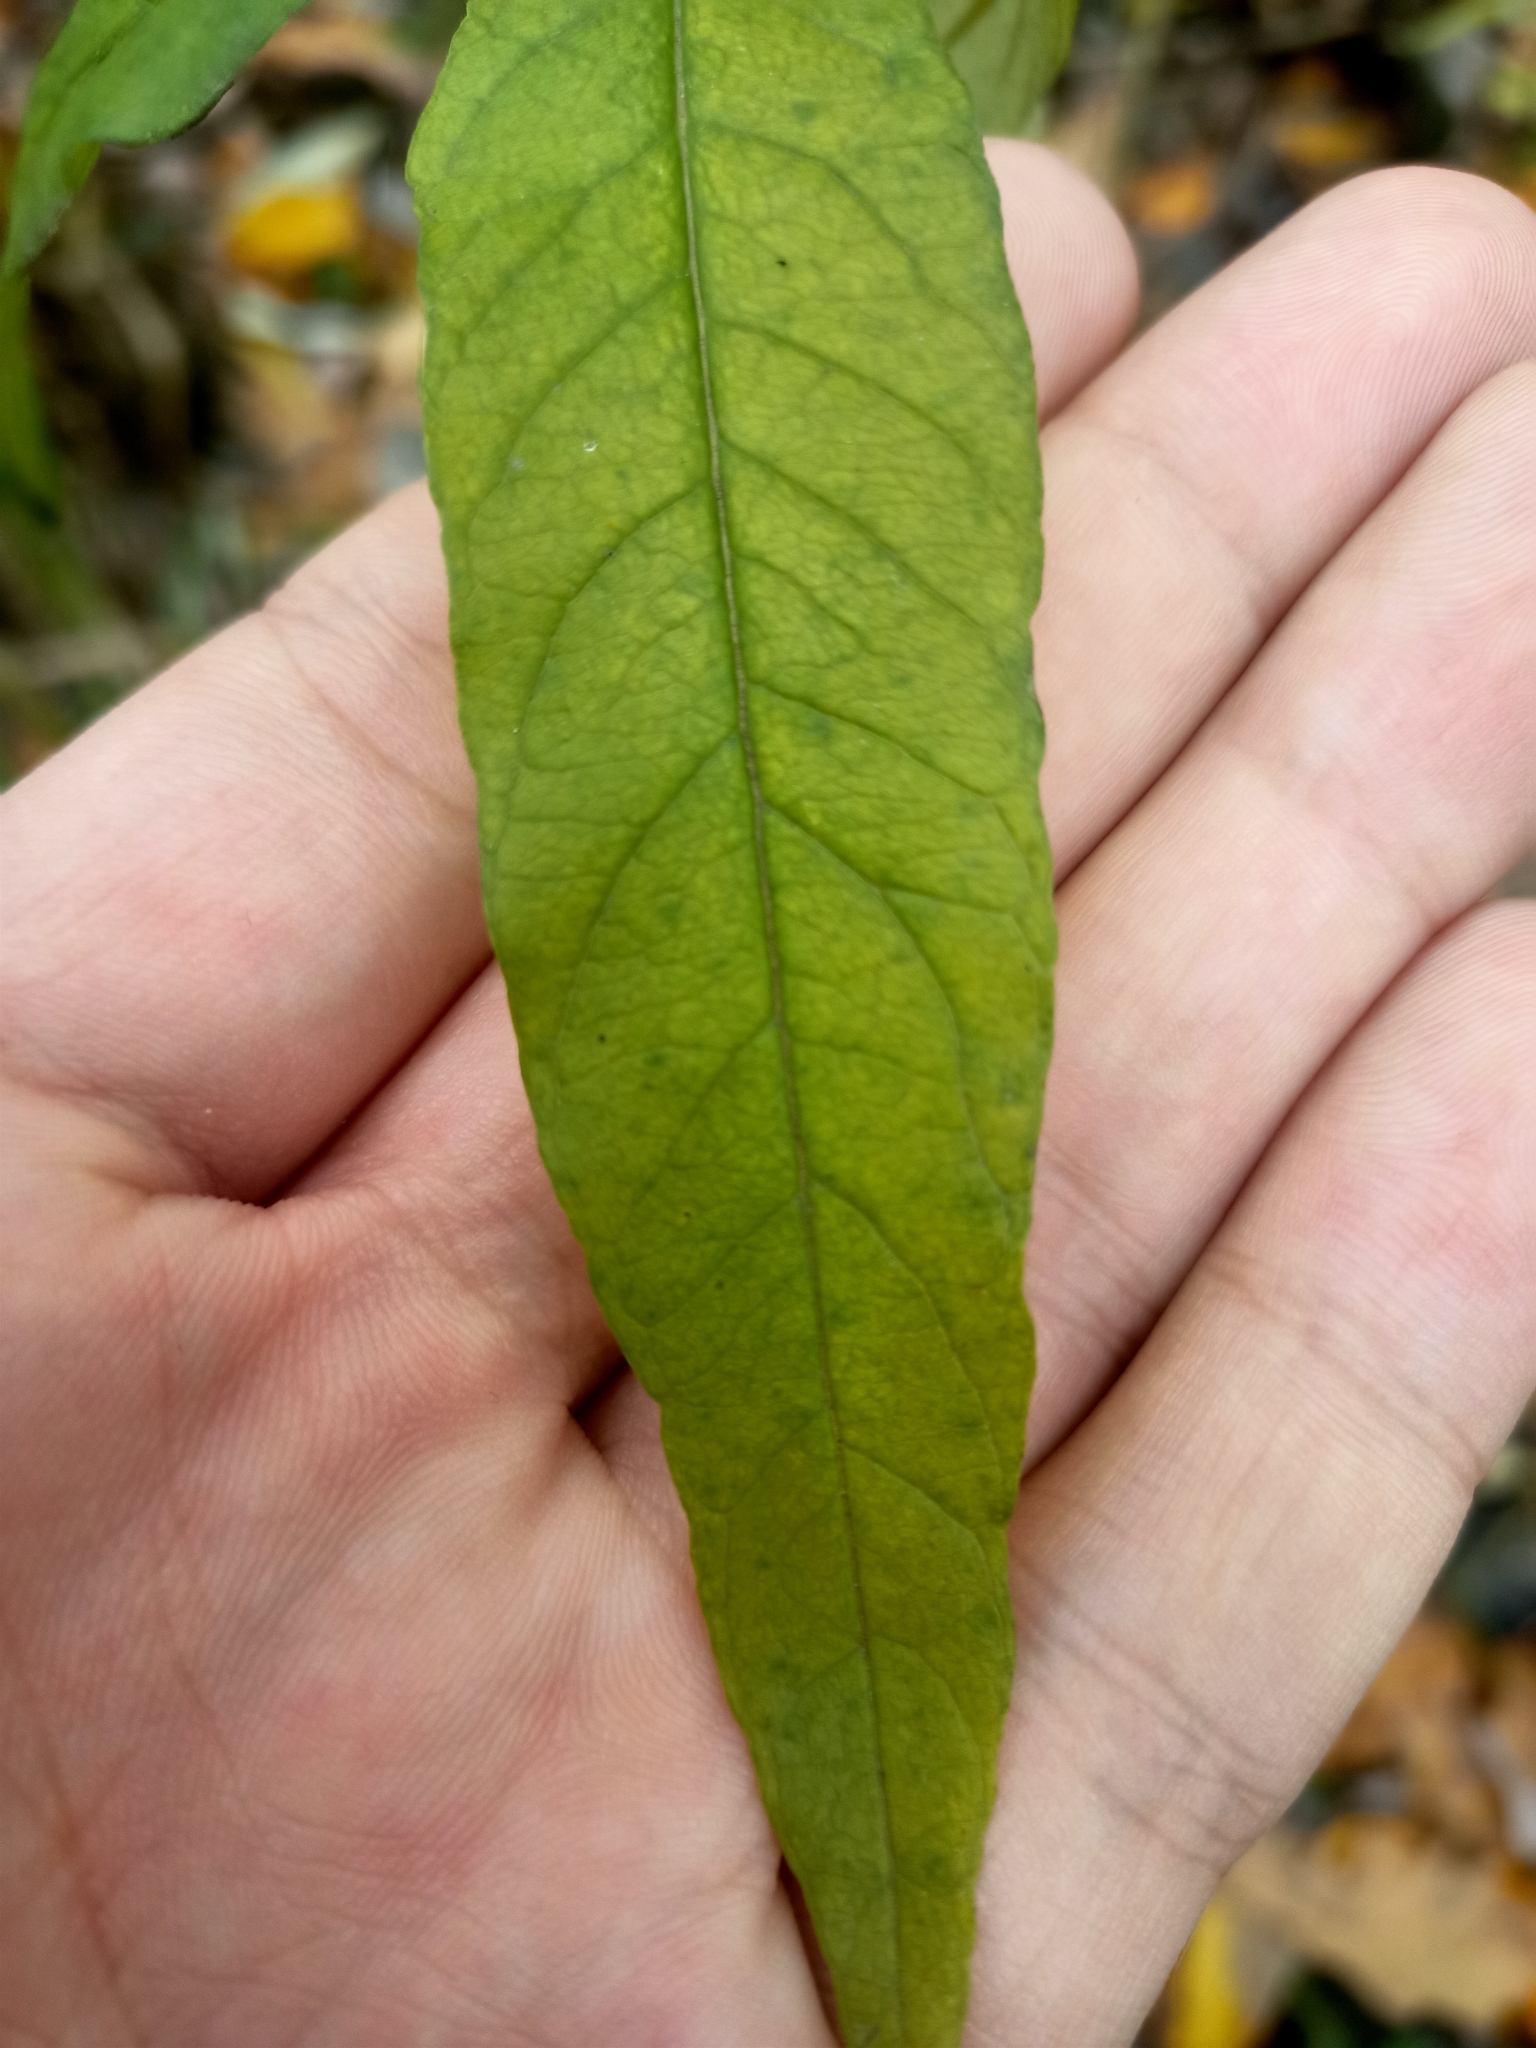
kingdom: Plantae
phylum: Tracheophyta
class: Magnoliopsida
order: Ericales
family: Primulaceae
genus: Lysimachia
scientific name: Lysimachia vulgaris
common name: Yellow loosestrife
